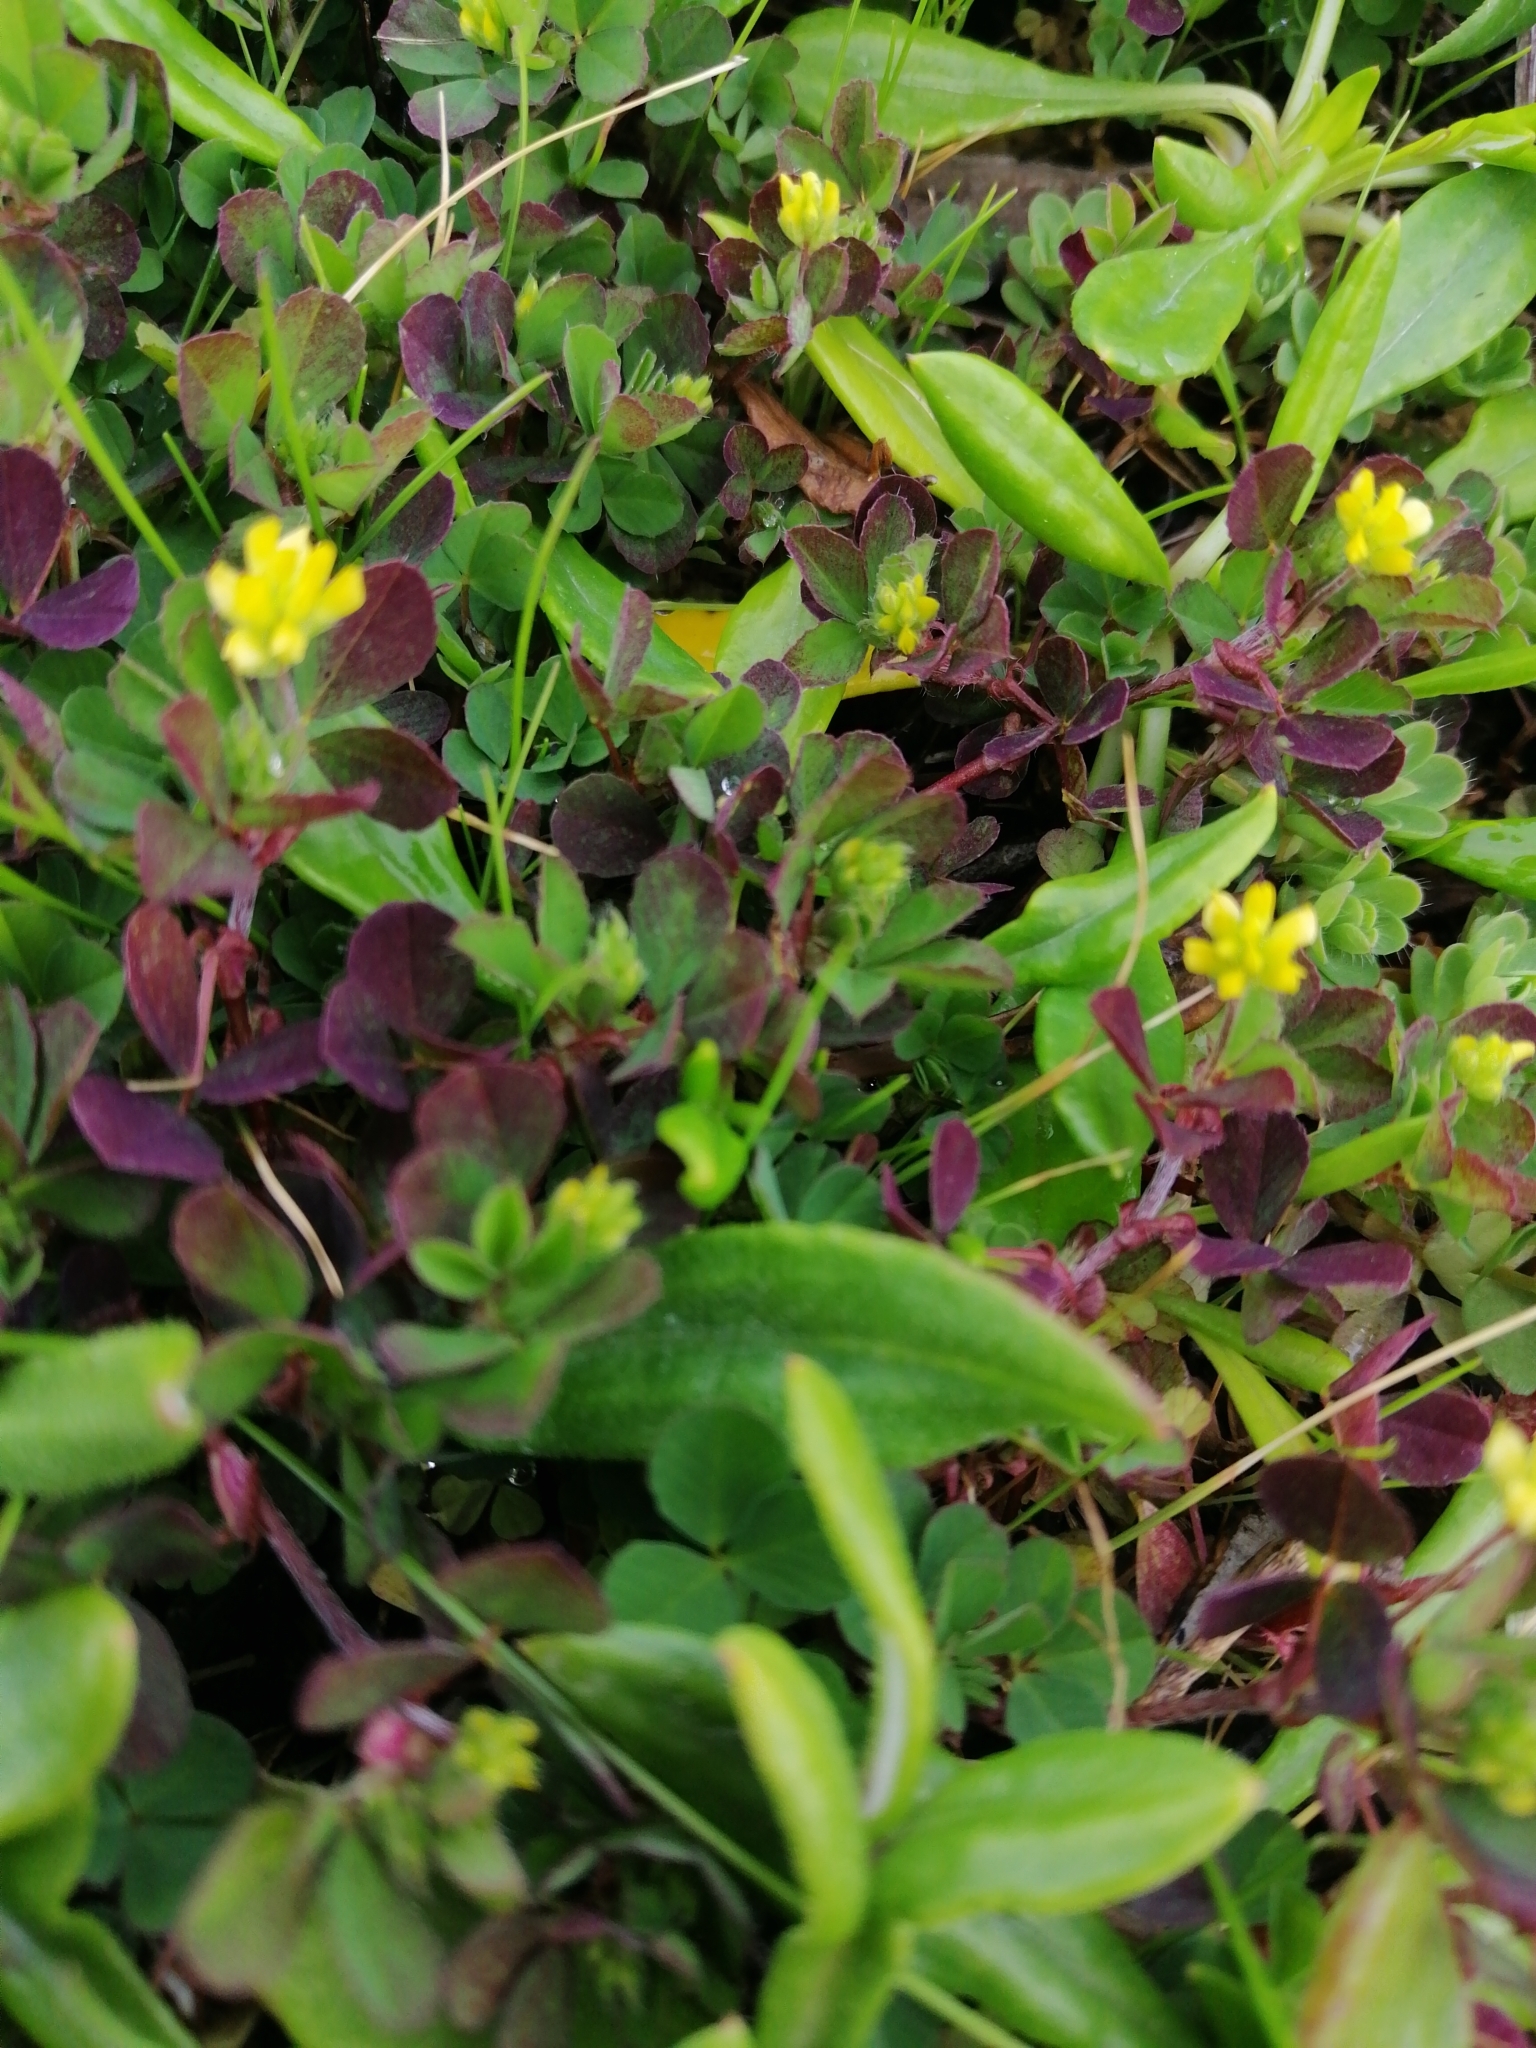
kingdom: Plantae
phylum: Tracheophyta
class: Magnoliopsida
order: Fabales
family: Fabaceae
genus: Trifolium
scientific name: Trifolium dubium
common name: Suckling clover
